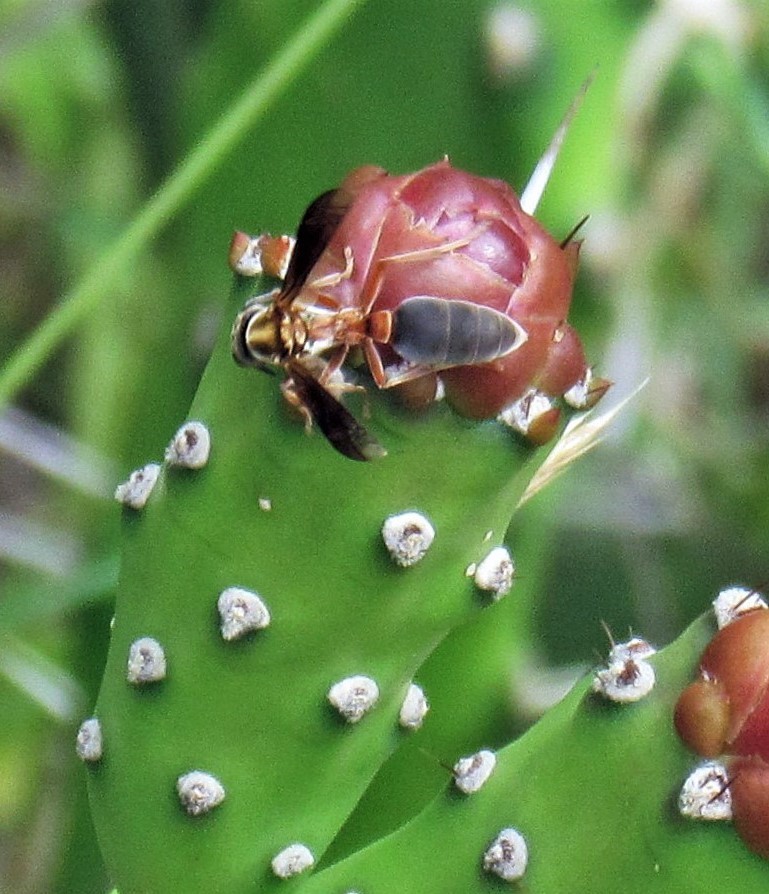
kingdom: Animalia
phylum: Arthropoda
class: Insecta
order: Hymenoptera
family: Eumenidae
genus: Polybia
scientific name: Polybia sericea
